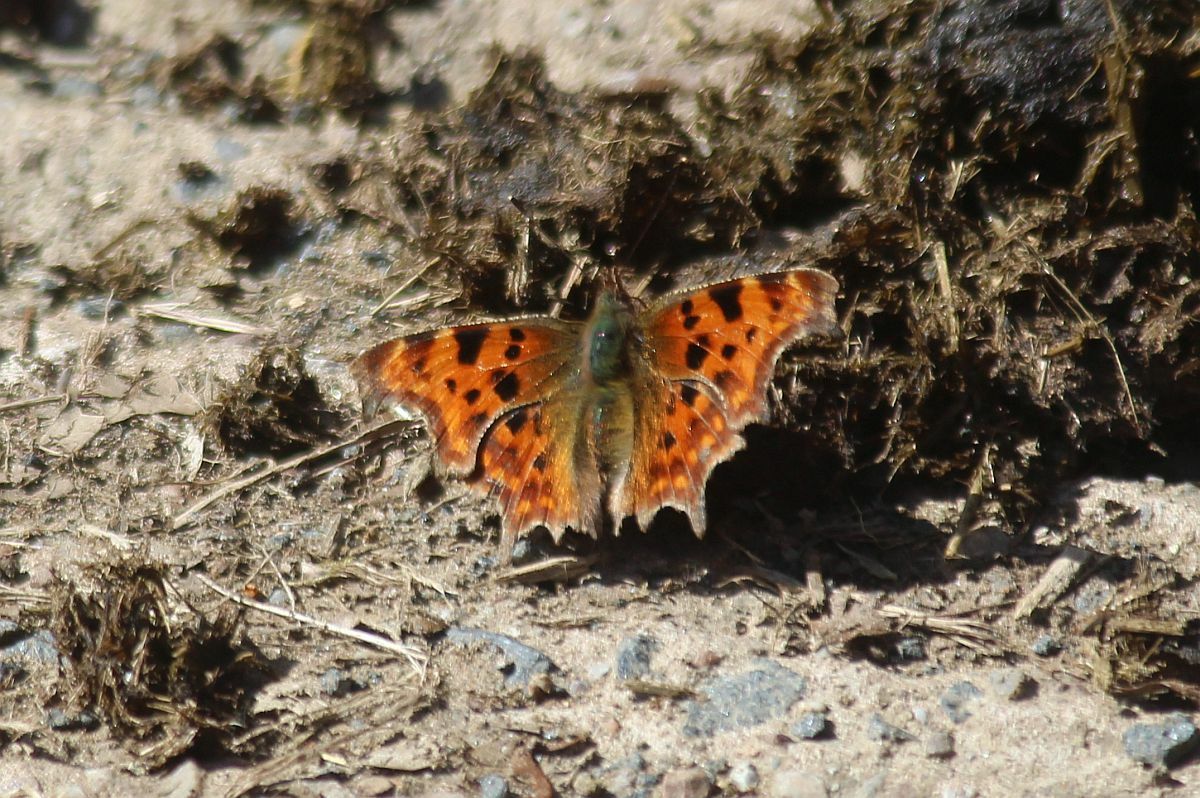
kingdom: Animalia
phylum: Arthropoda
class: Insecta
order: Lepidoptera
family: Nymphalidae
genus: Polygonia
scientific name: Polygonia c-album
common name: Comma
